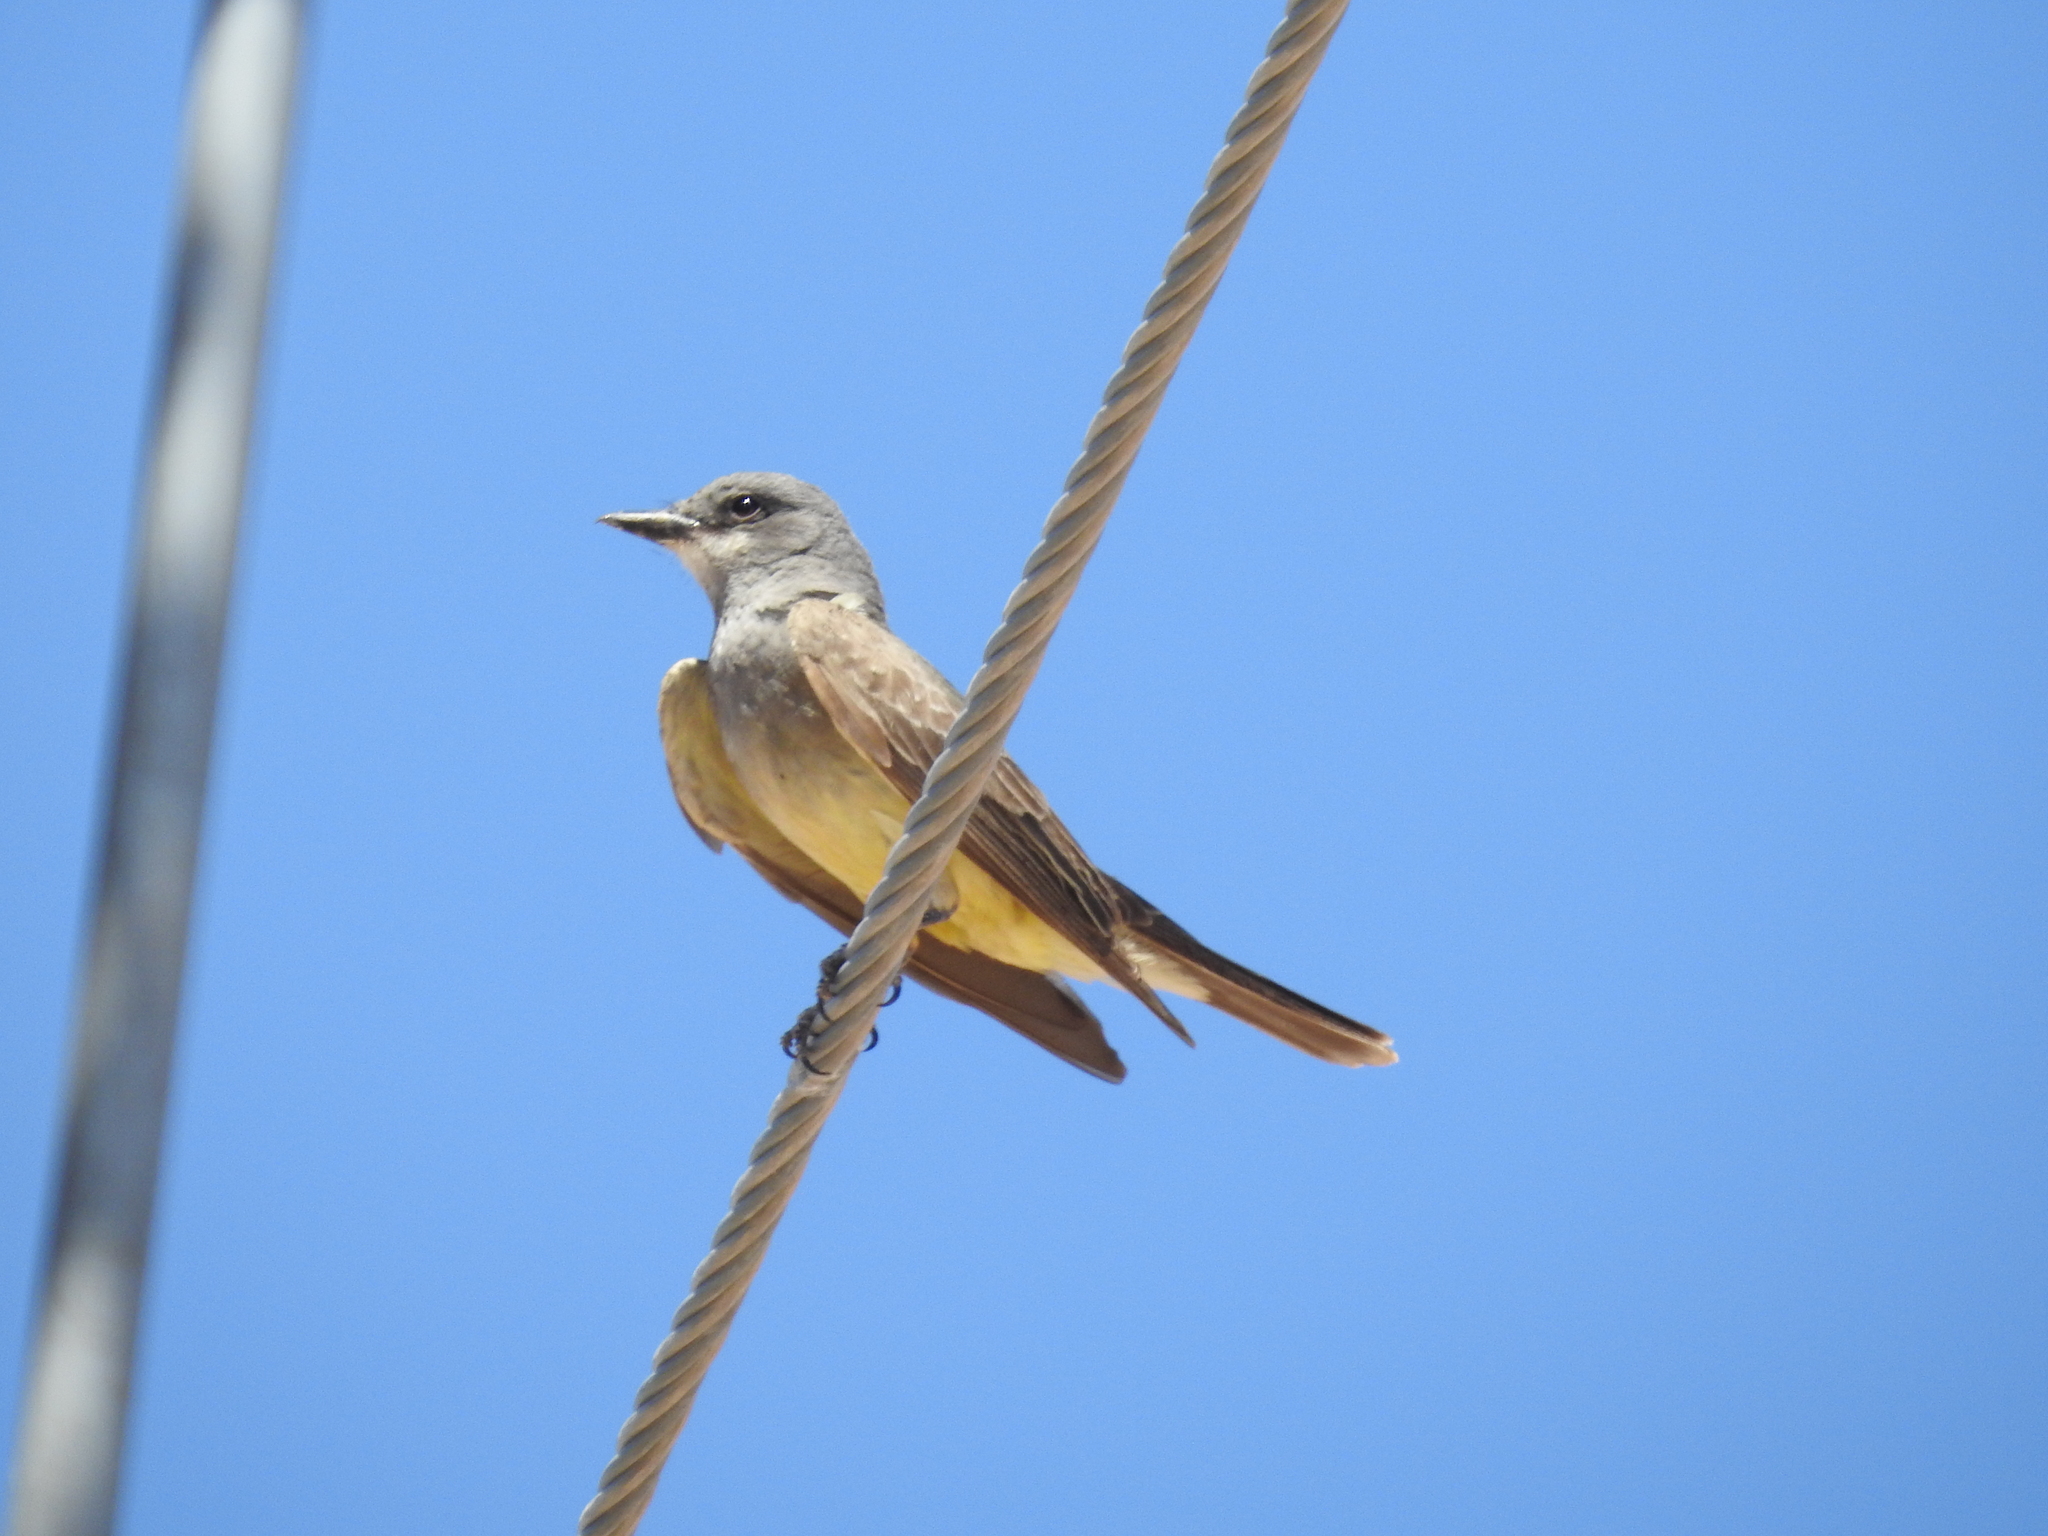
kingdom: Animalia
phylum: Chordata
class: Aves
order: Passeriformes
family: Tyrannidae
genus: Tyrannus
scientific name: Tyrannus vociferans
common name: Cassin's kingbird
